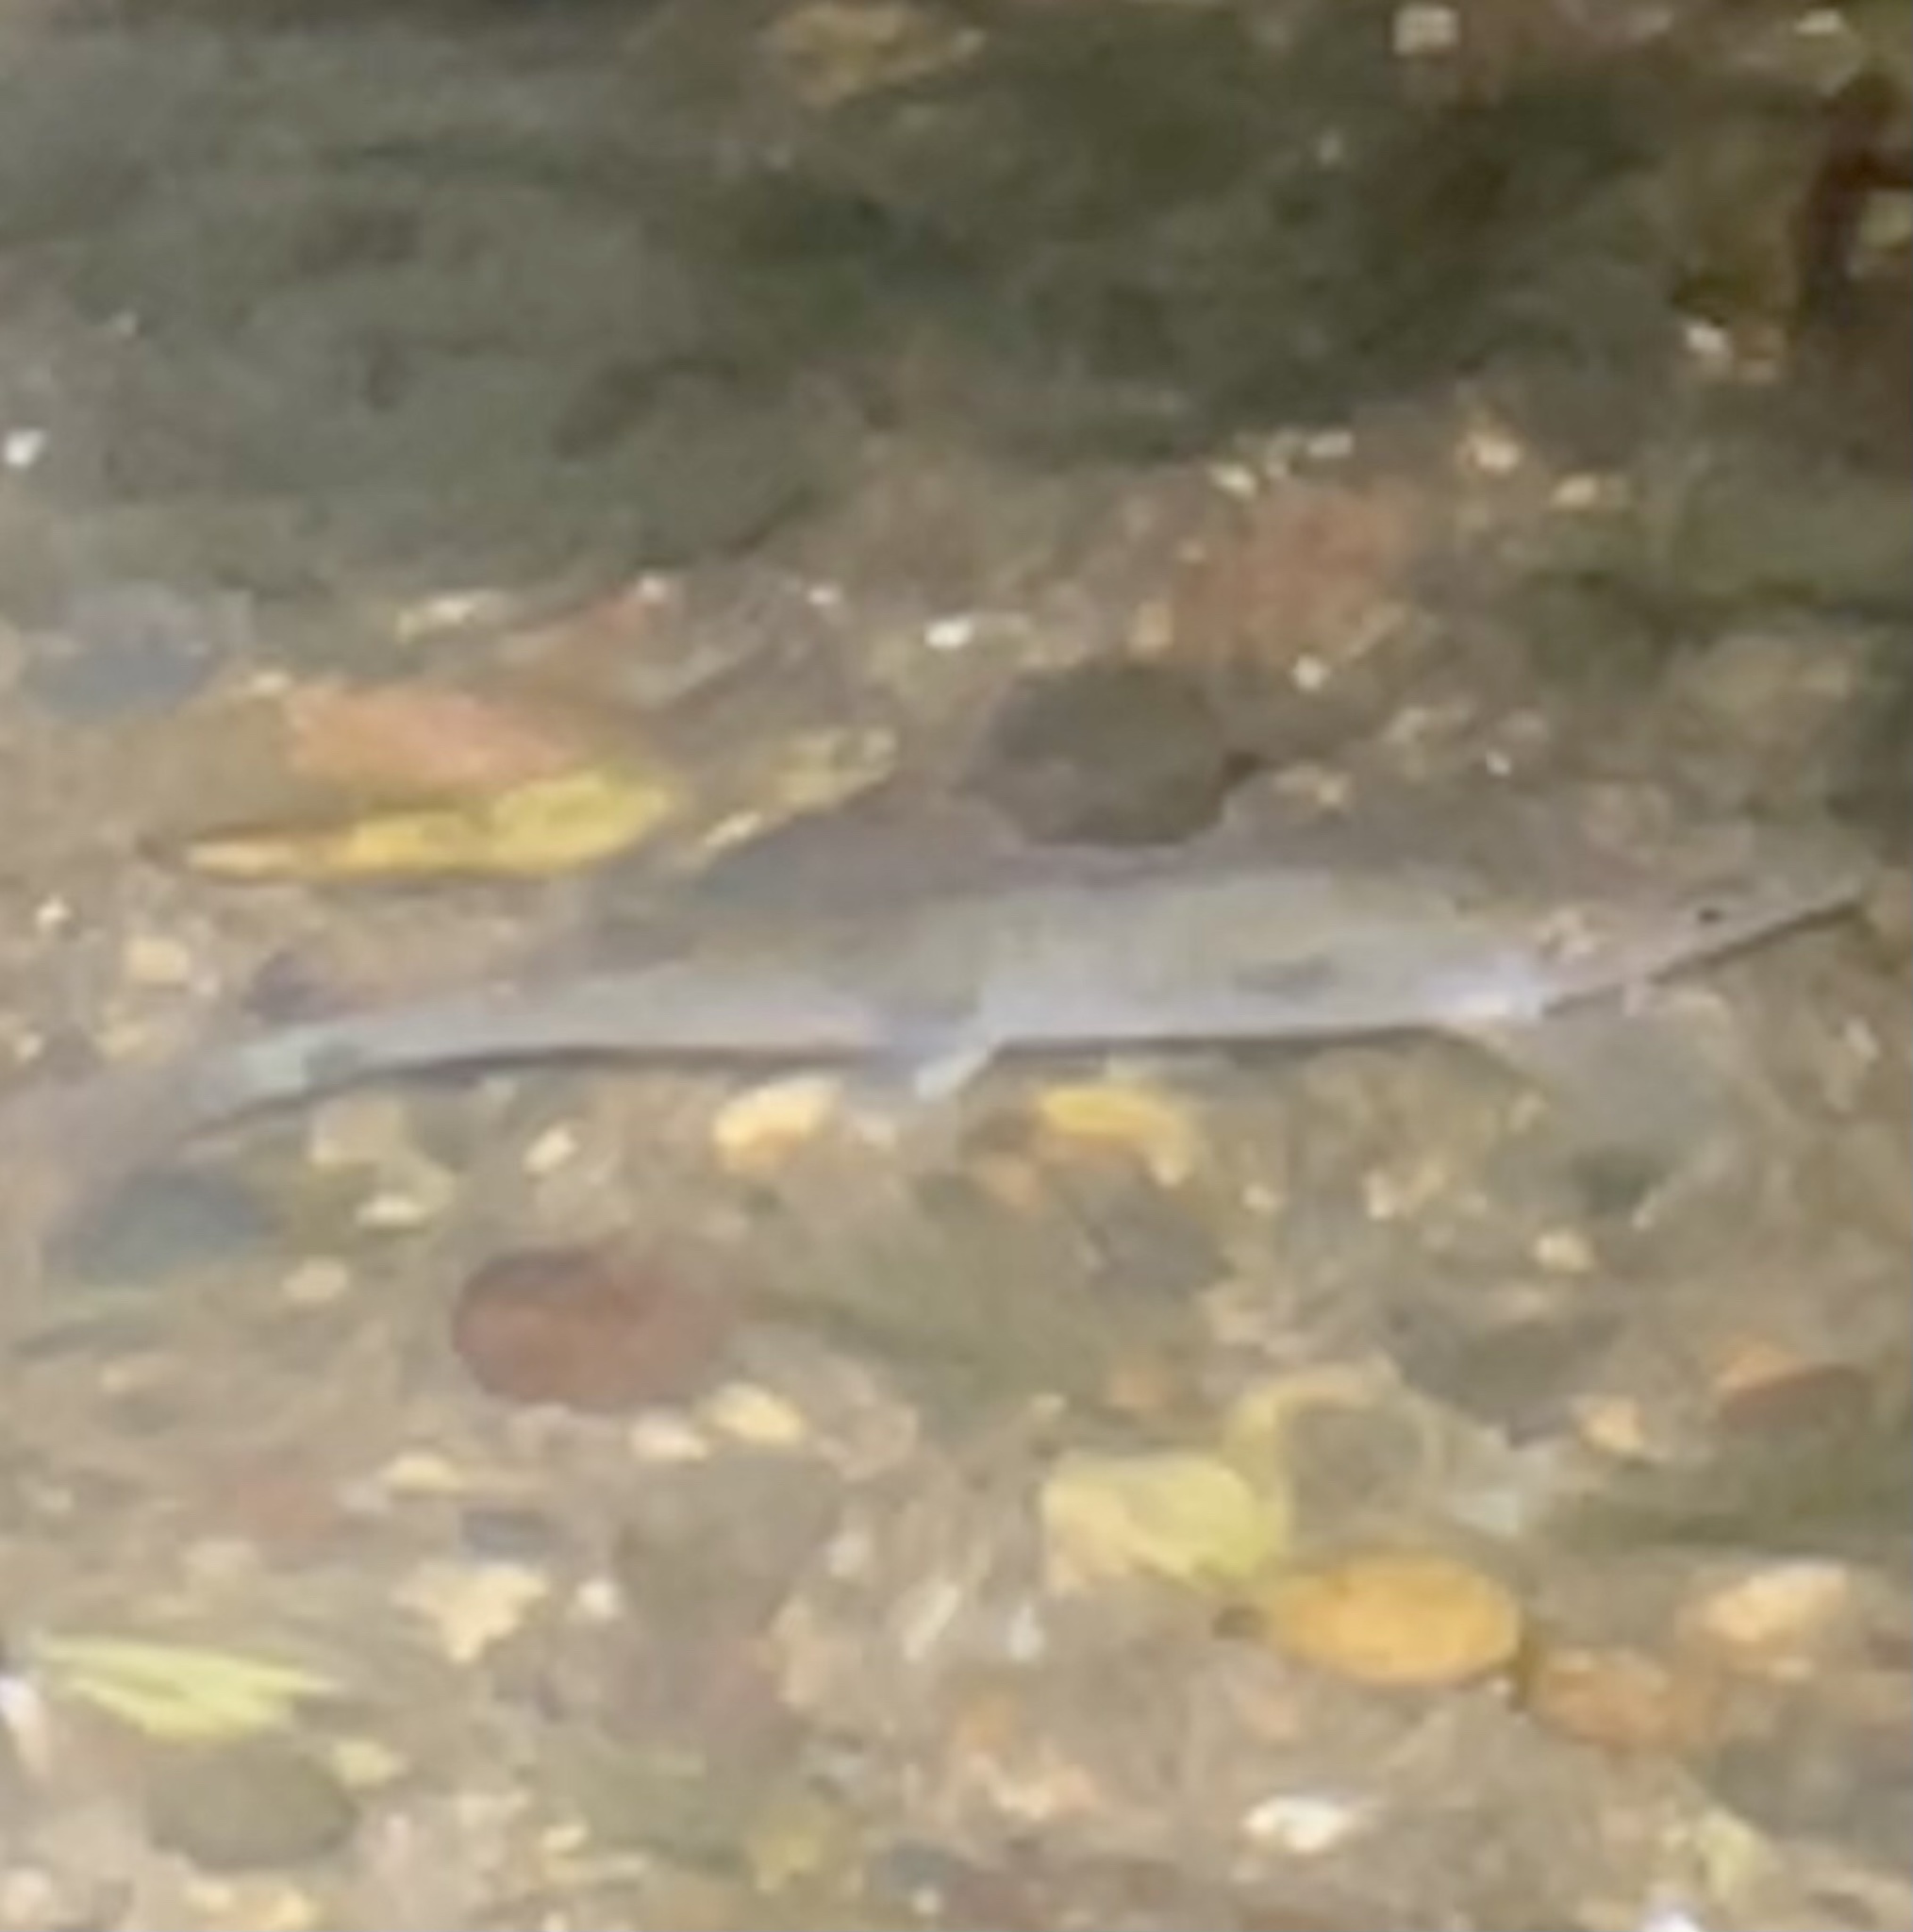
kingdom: Animalia
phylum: Chordata
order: Cypriniformes
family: Catostomidae
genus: Catostomus
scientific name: Catostomus commersonii
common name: White sucker
